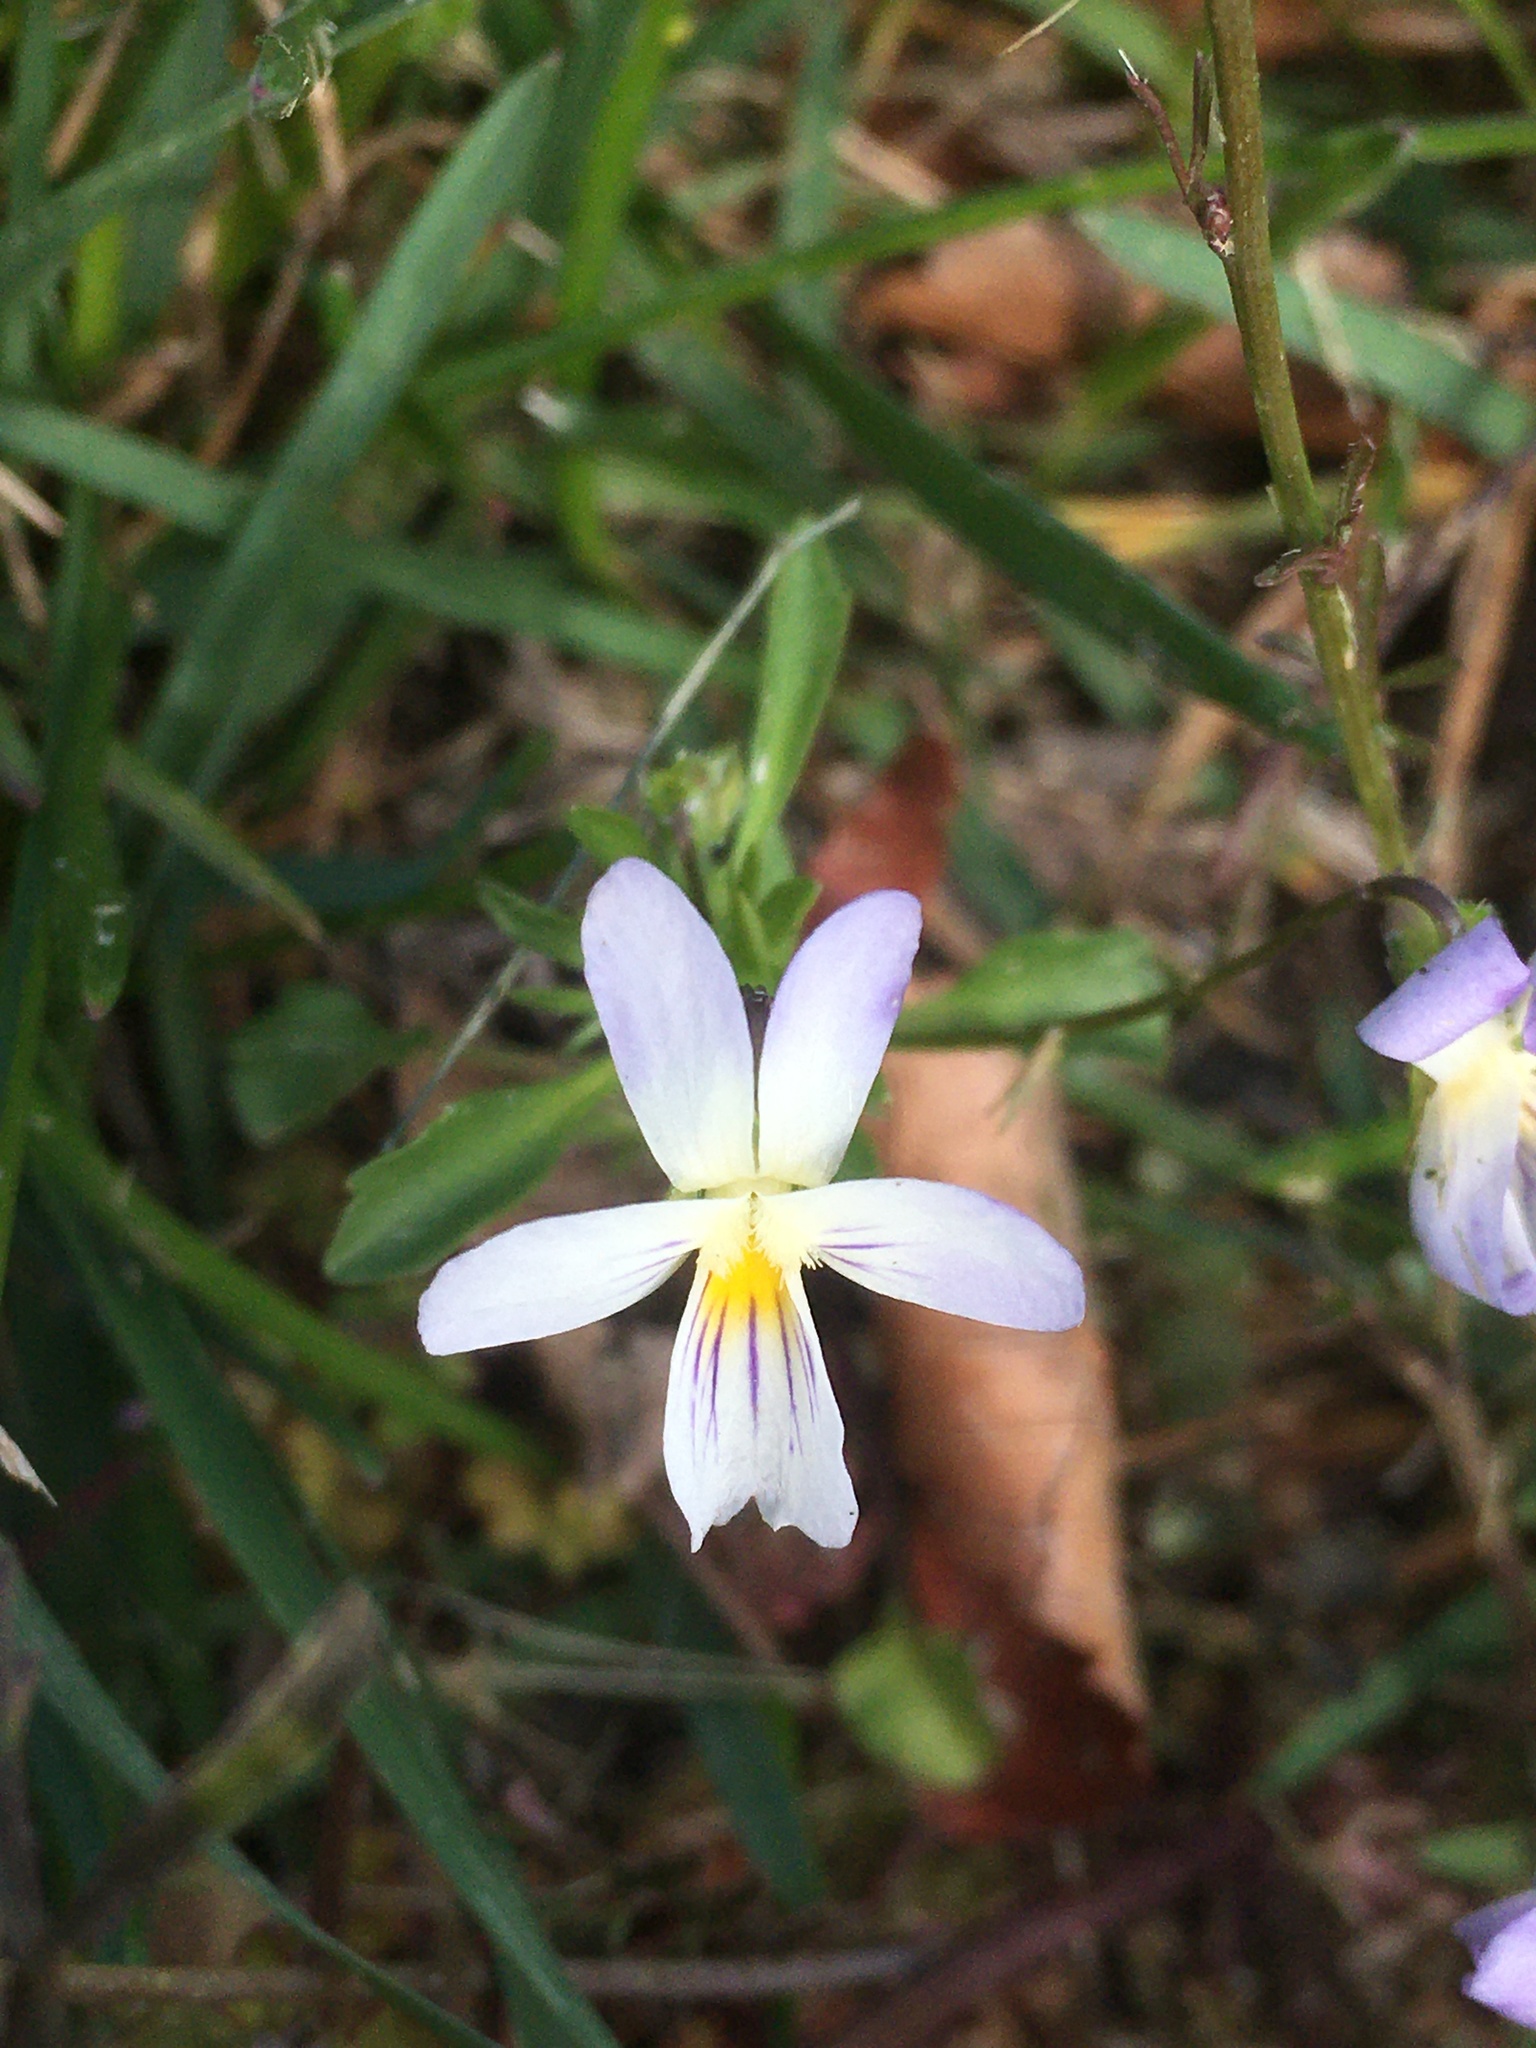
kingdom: Plantae
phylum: Tracheophyta
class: Magnoliopsida
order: Malpighiales
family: Violaceae
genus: Viola
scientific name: Viola rafinesquei
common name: American field pansy
